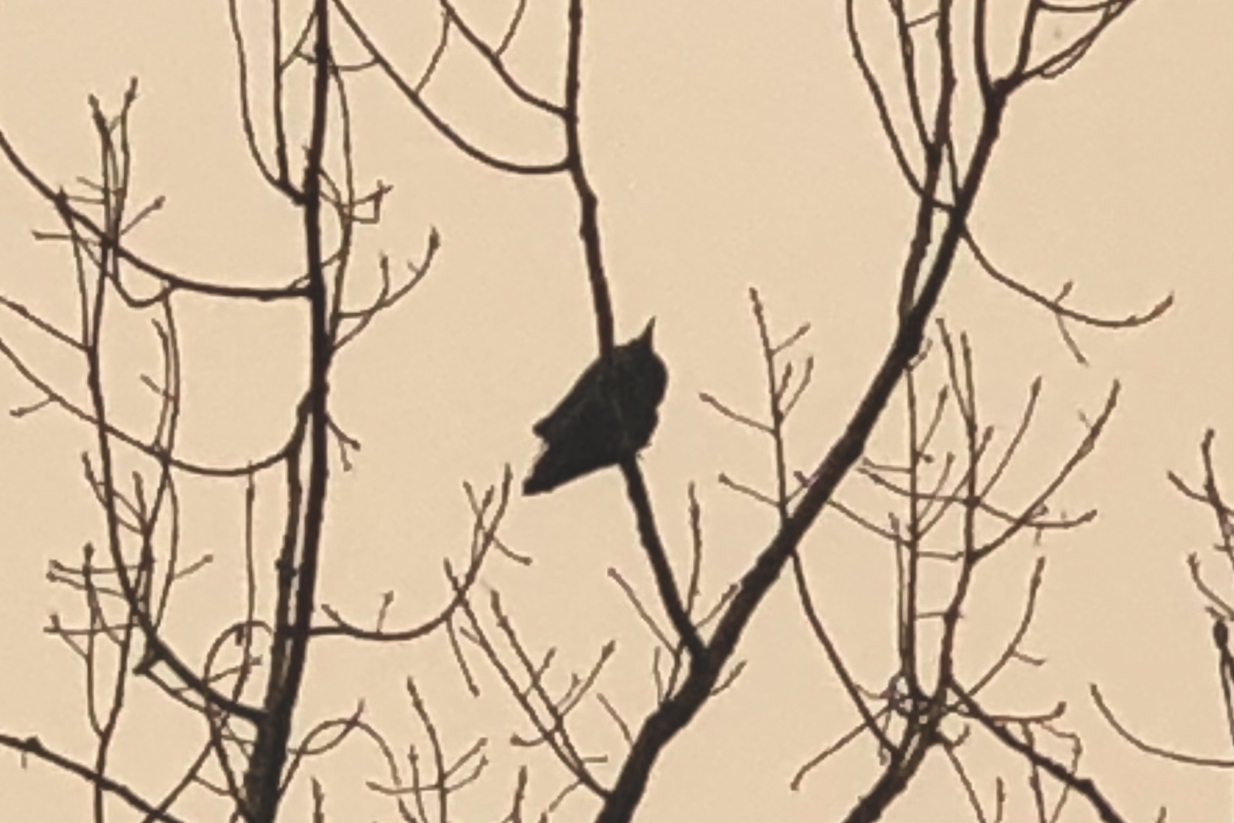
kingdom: Animalia
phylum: Chordata
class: Aves
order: Passeriformes
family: Sturnidae
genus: Sturnus
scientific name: Sturnus vulgaris
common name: Common starling
